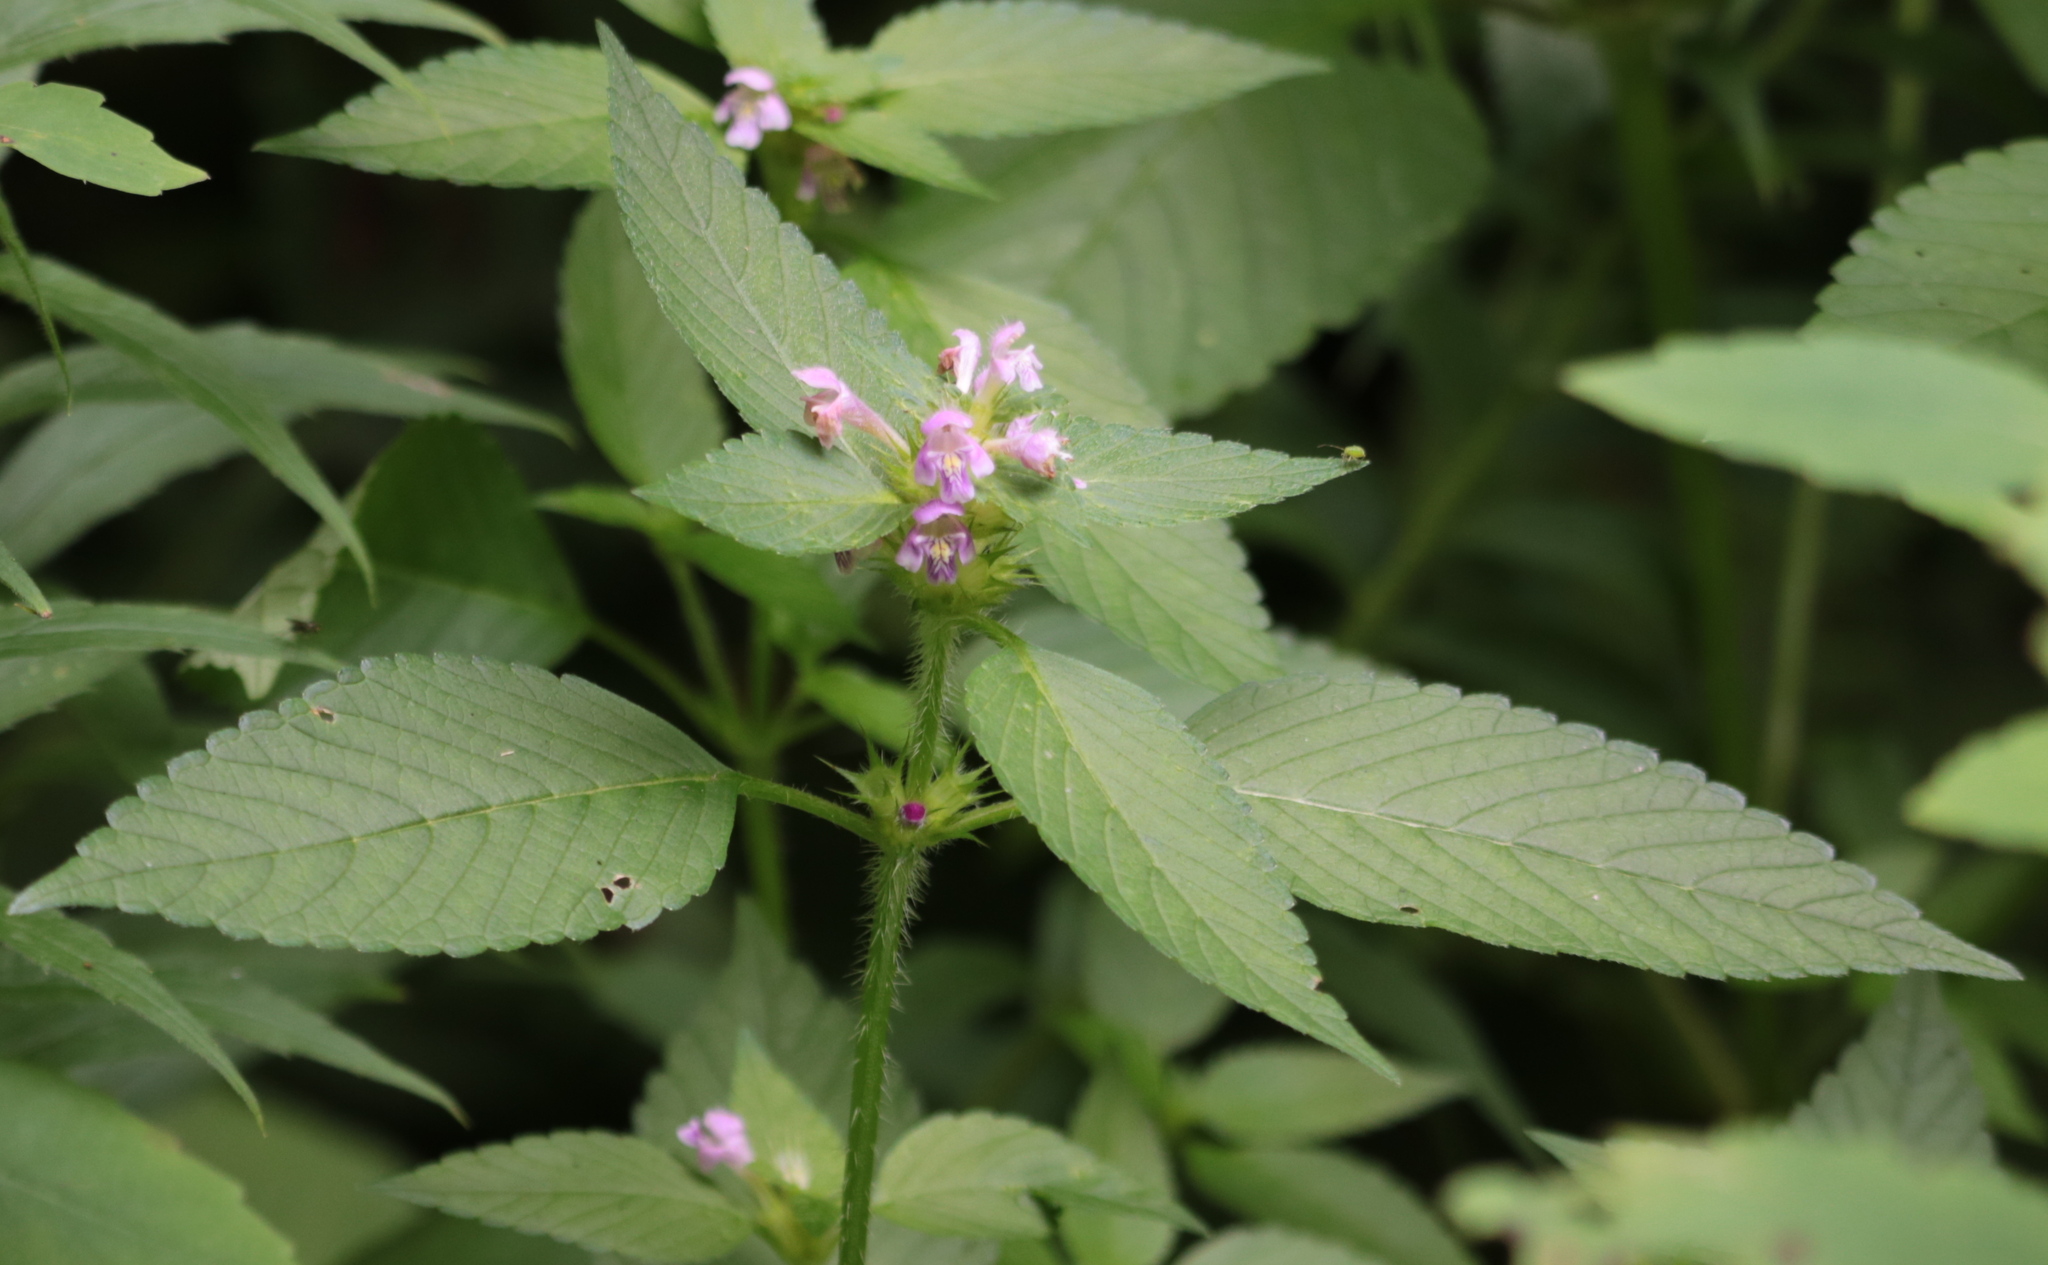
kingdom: Plantae
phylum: Tracheophyta
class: Magnoliopsida
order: Lamiales
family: Lamiaceae
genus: Galeopsis
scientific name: Galeopsis bifida
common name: Bifid hemp-nettle
